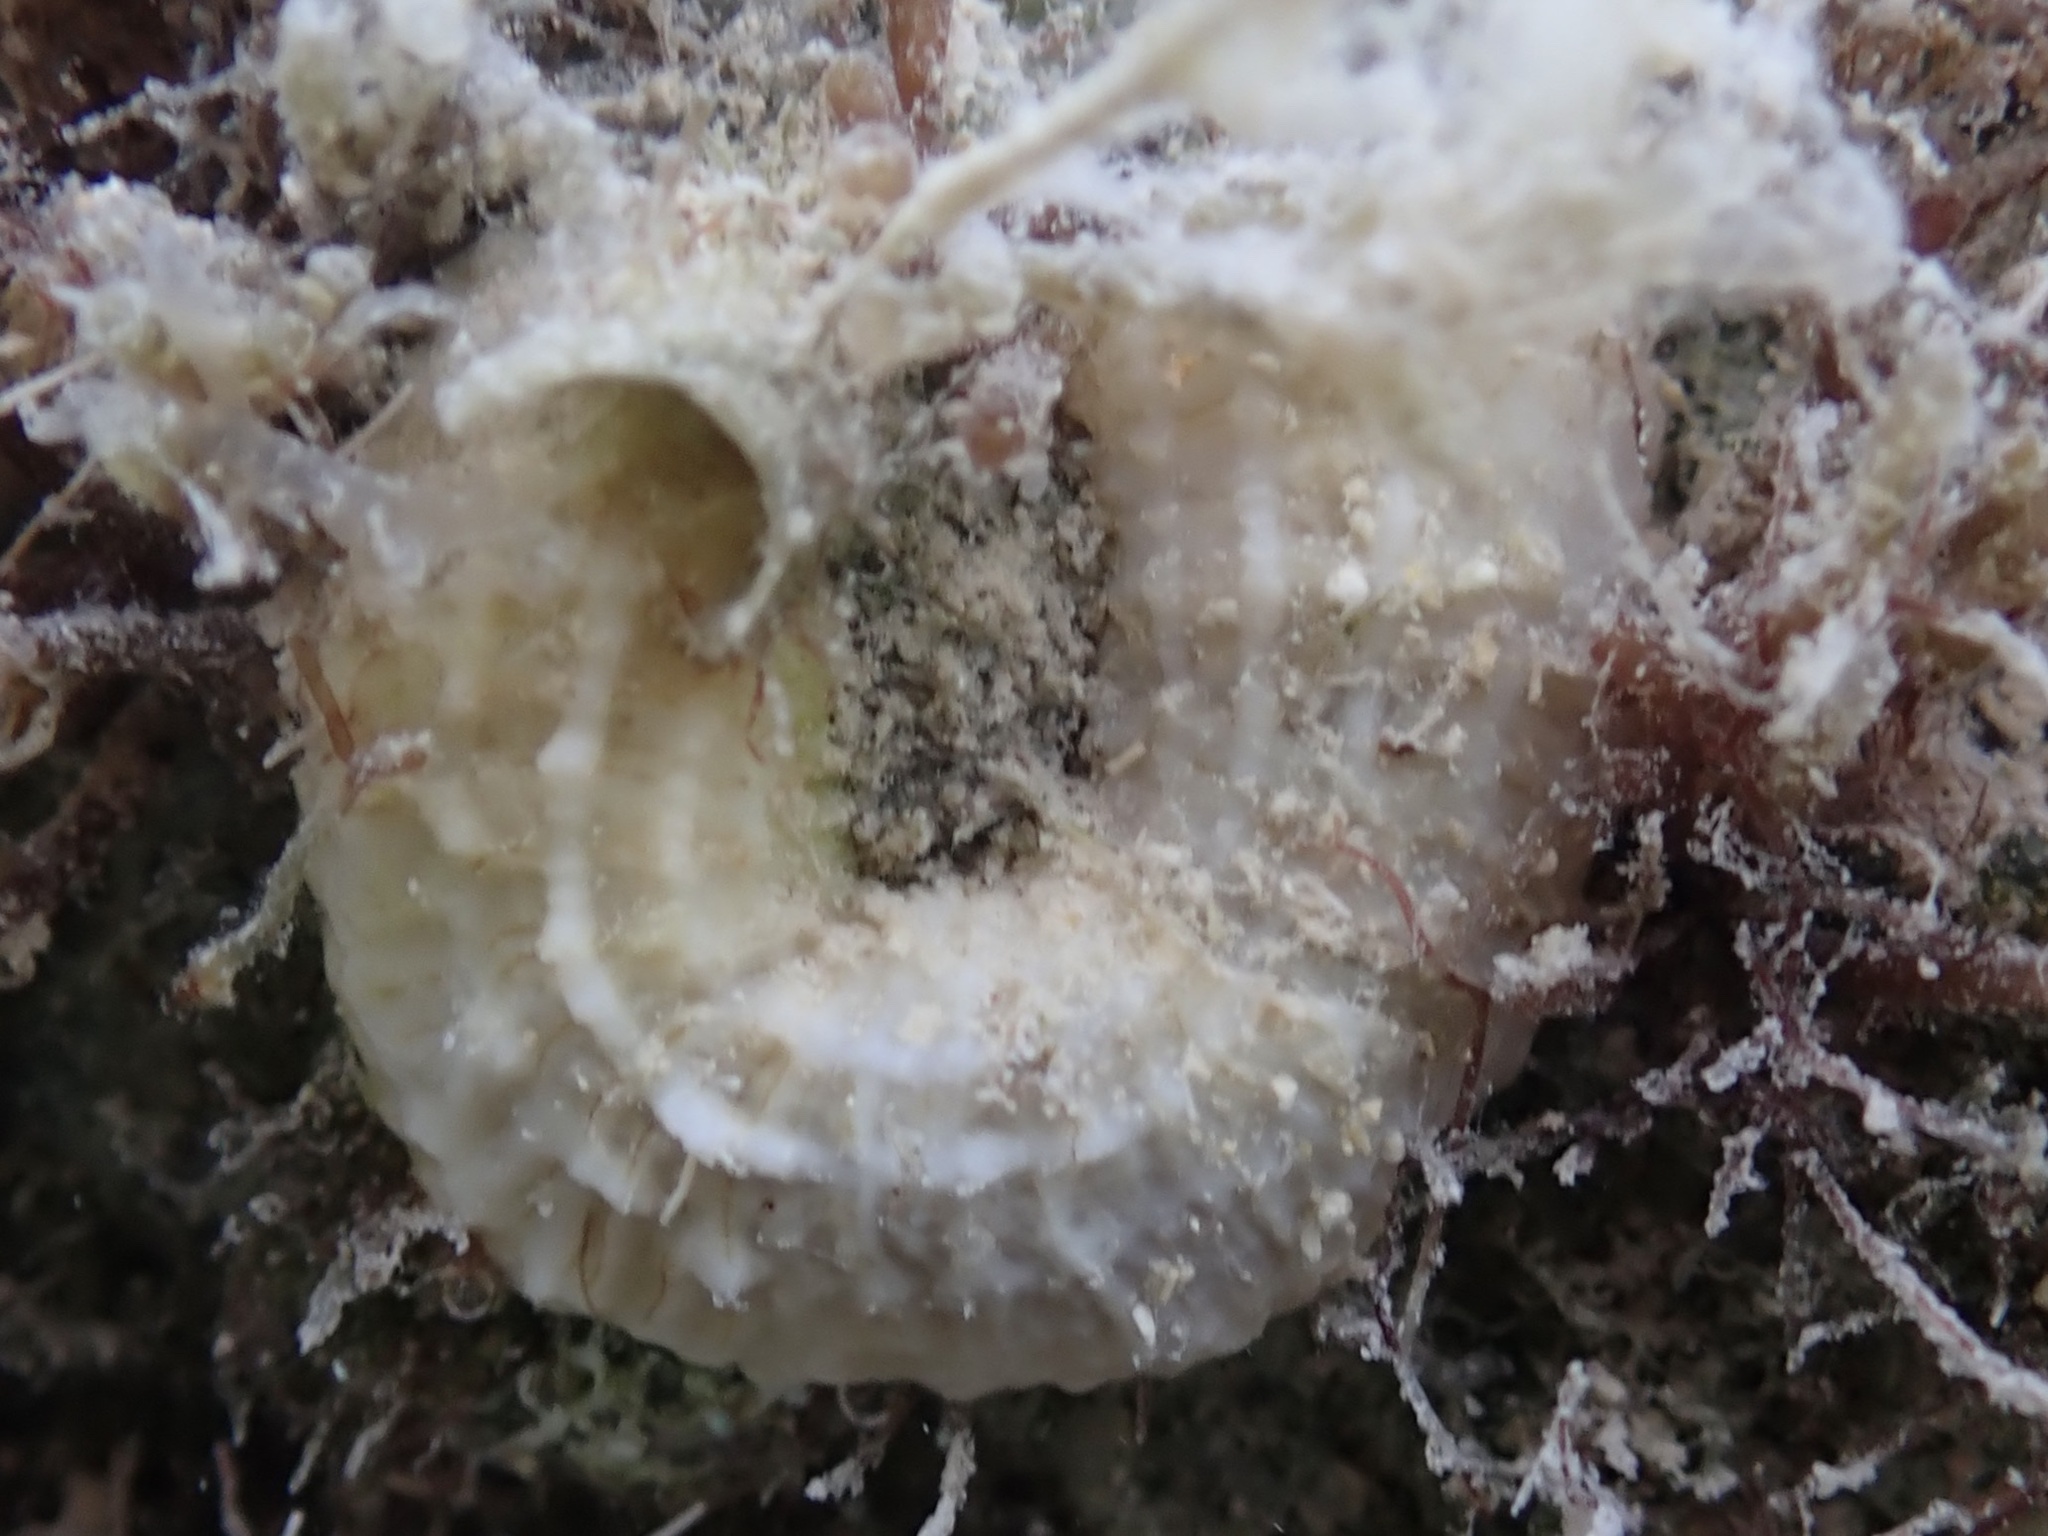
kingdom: Animalia
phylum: Mollusca
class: Gastropoda
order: Littorinimorpha
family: Vermetidae
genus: Thylacodes
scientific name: Thylacodes decussatus
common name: Decussate wormsnail
